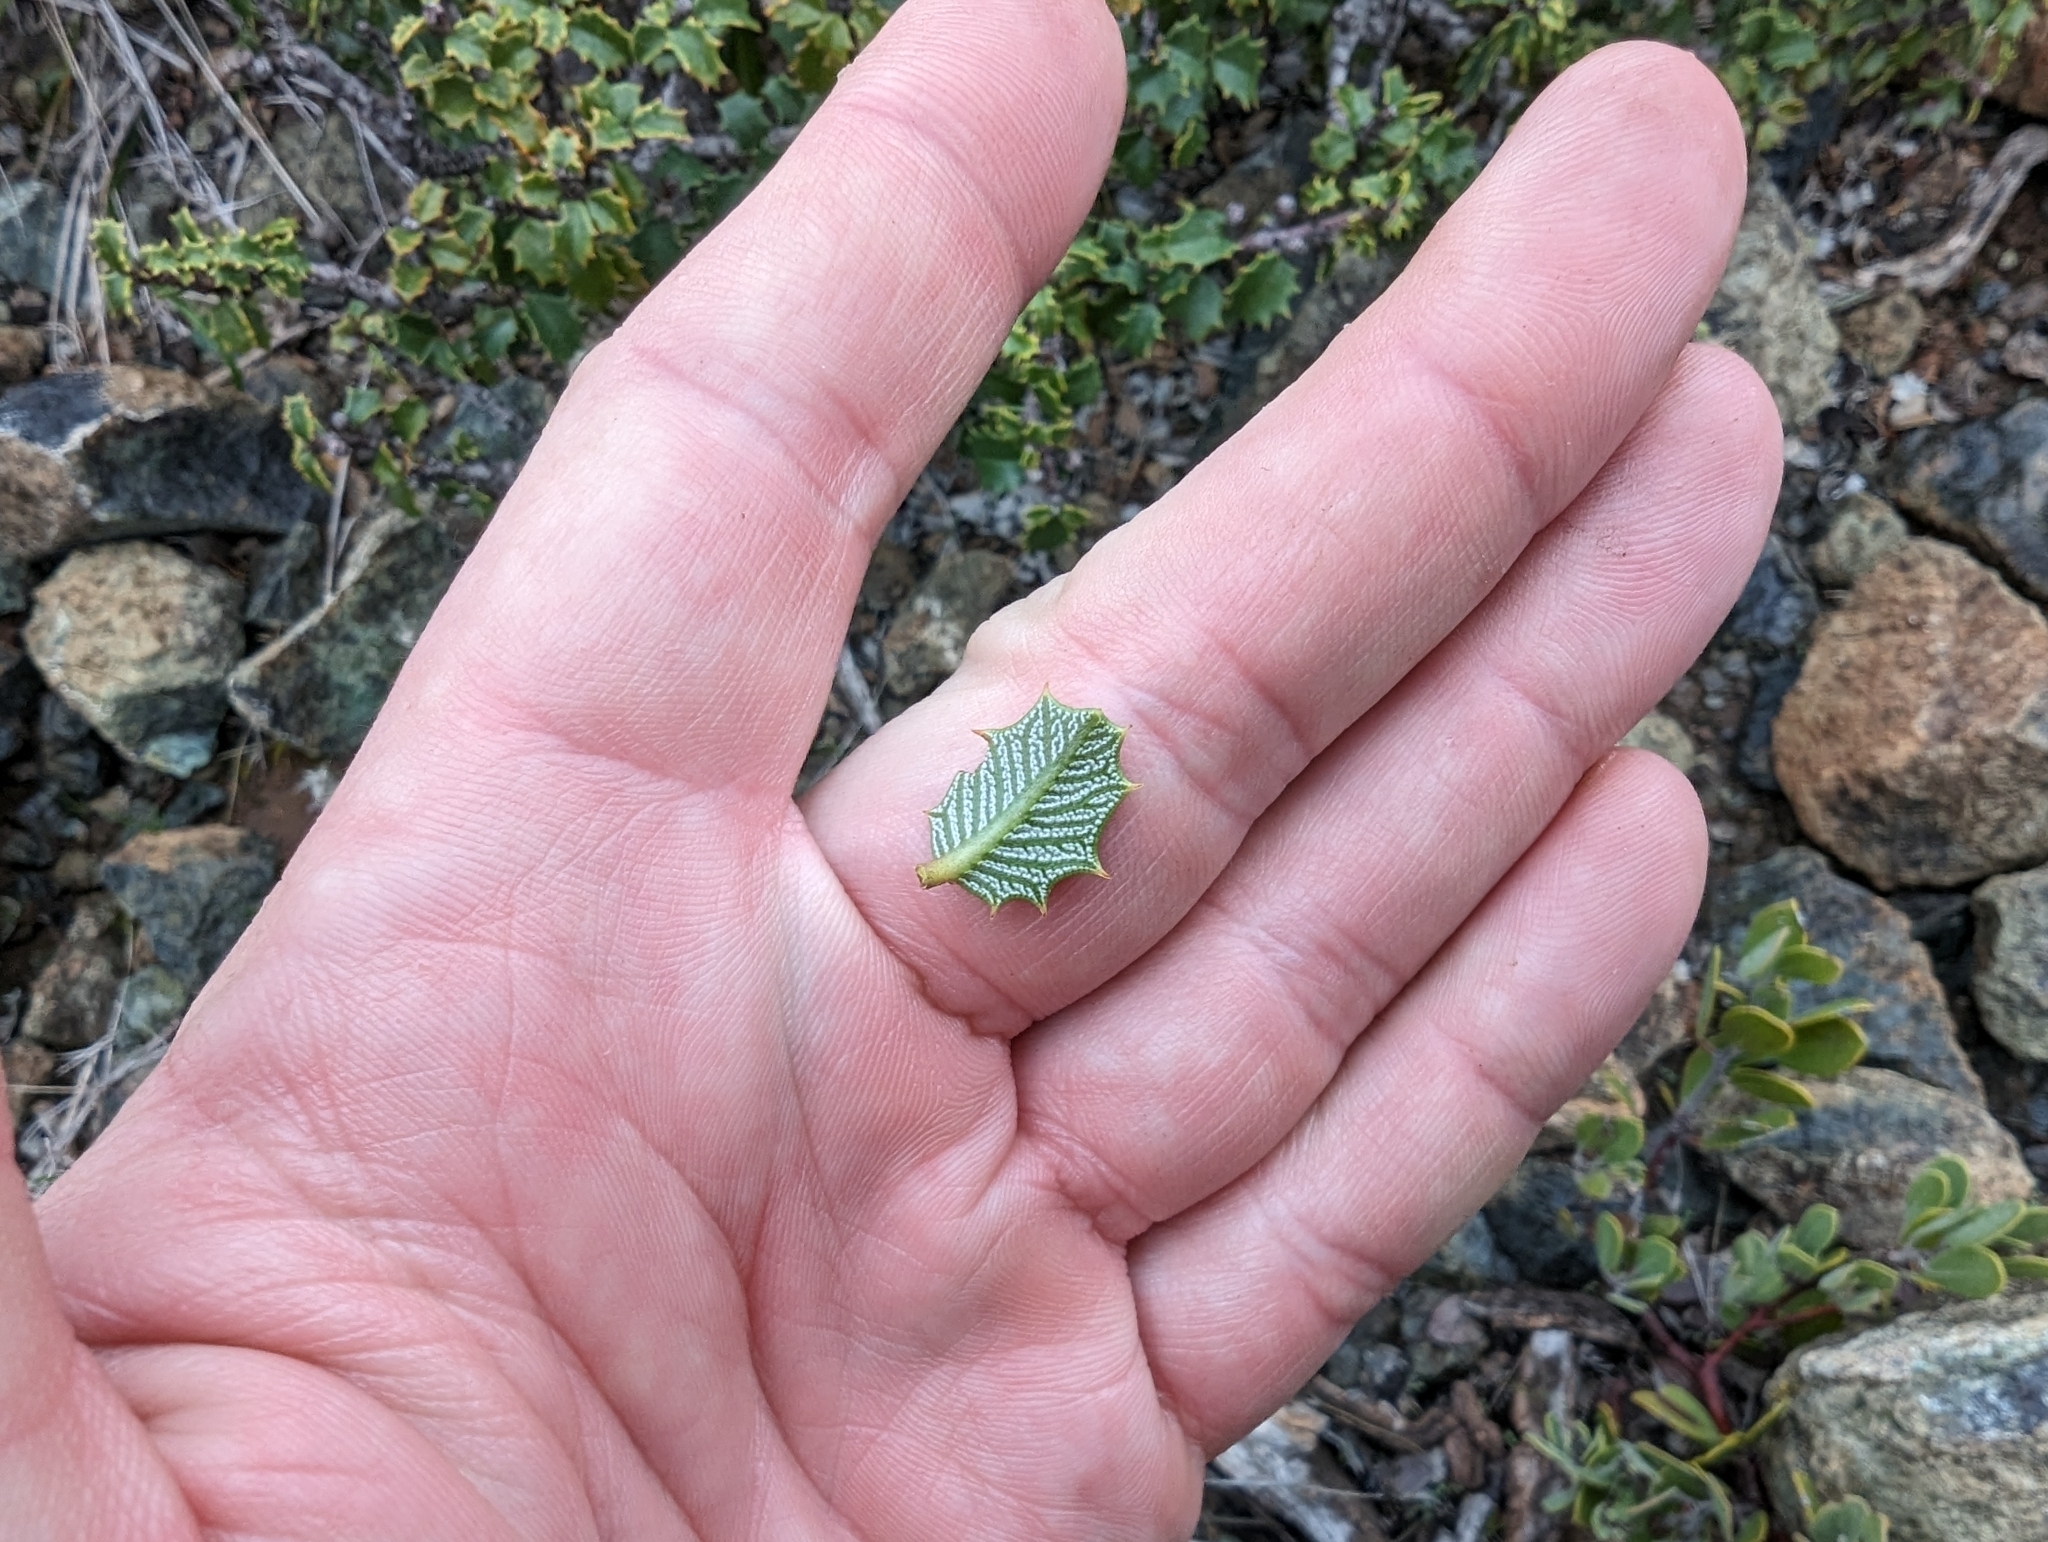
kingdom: Plantae
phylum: Tracheophyta
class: Magnoliopsida
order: Rosales
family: Rhamnaceae
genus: Ceanothus
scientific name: Ceanothus jepsonii
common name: Muskbrush
